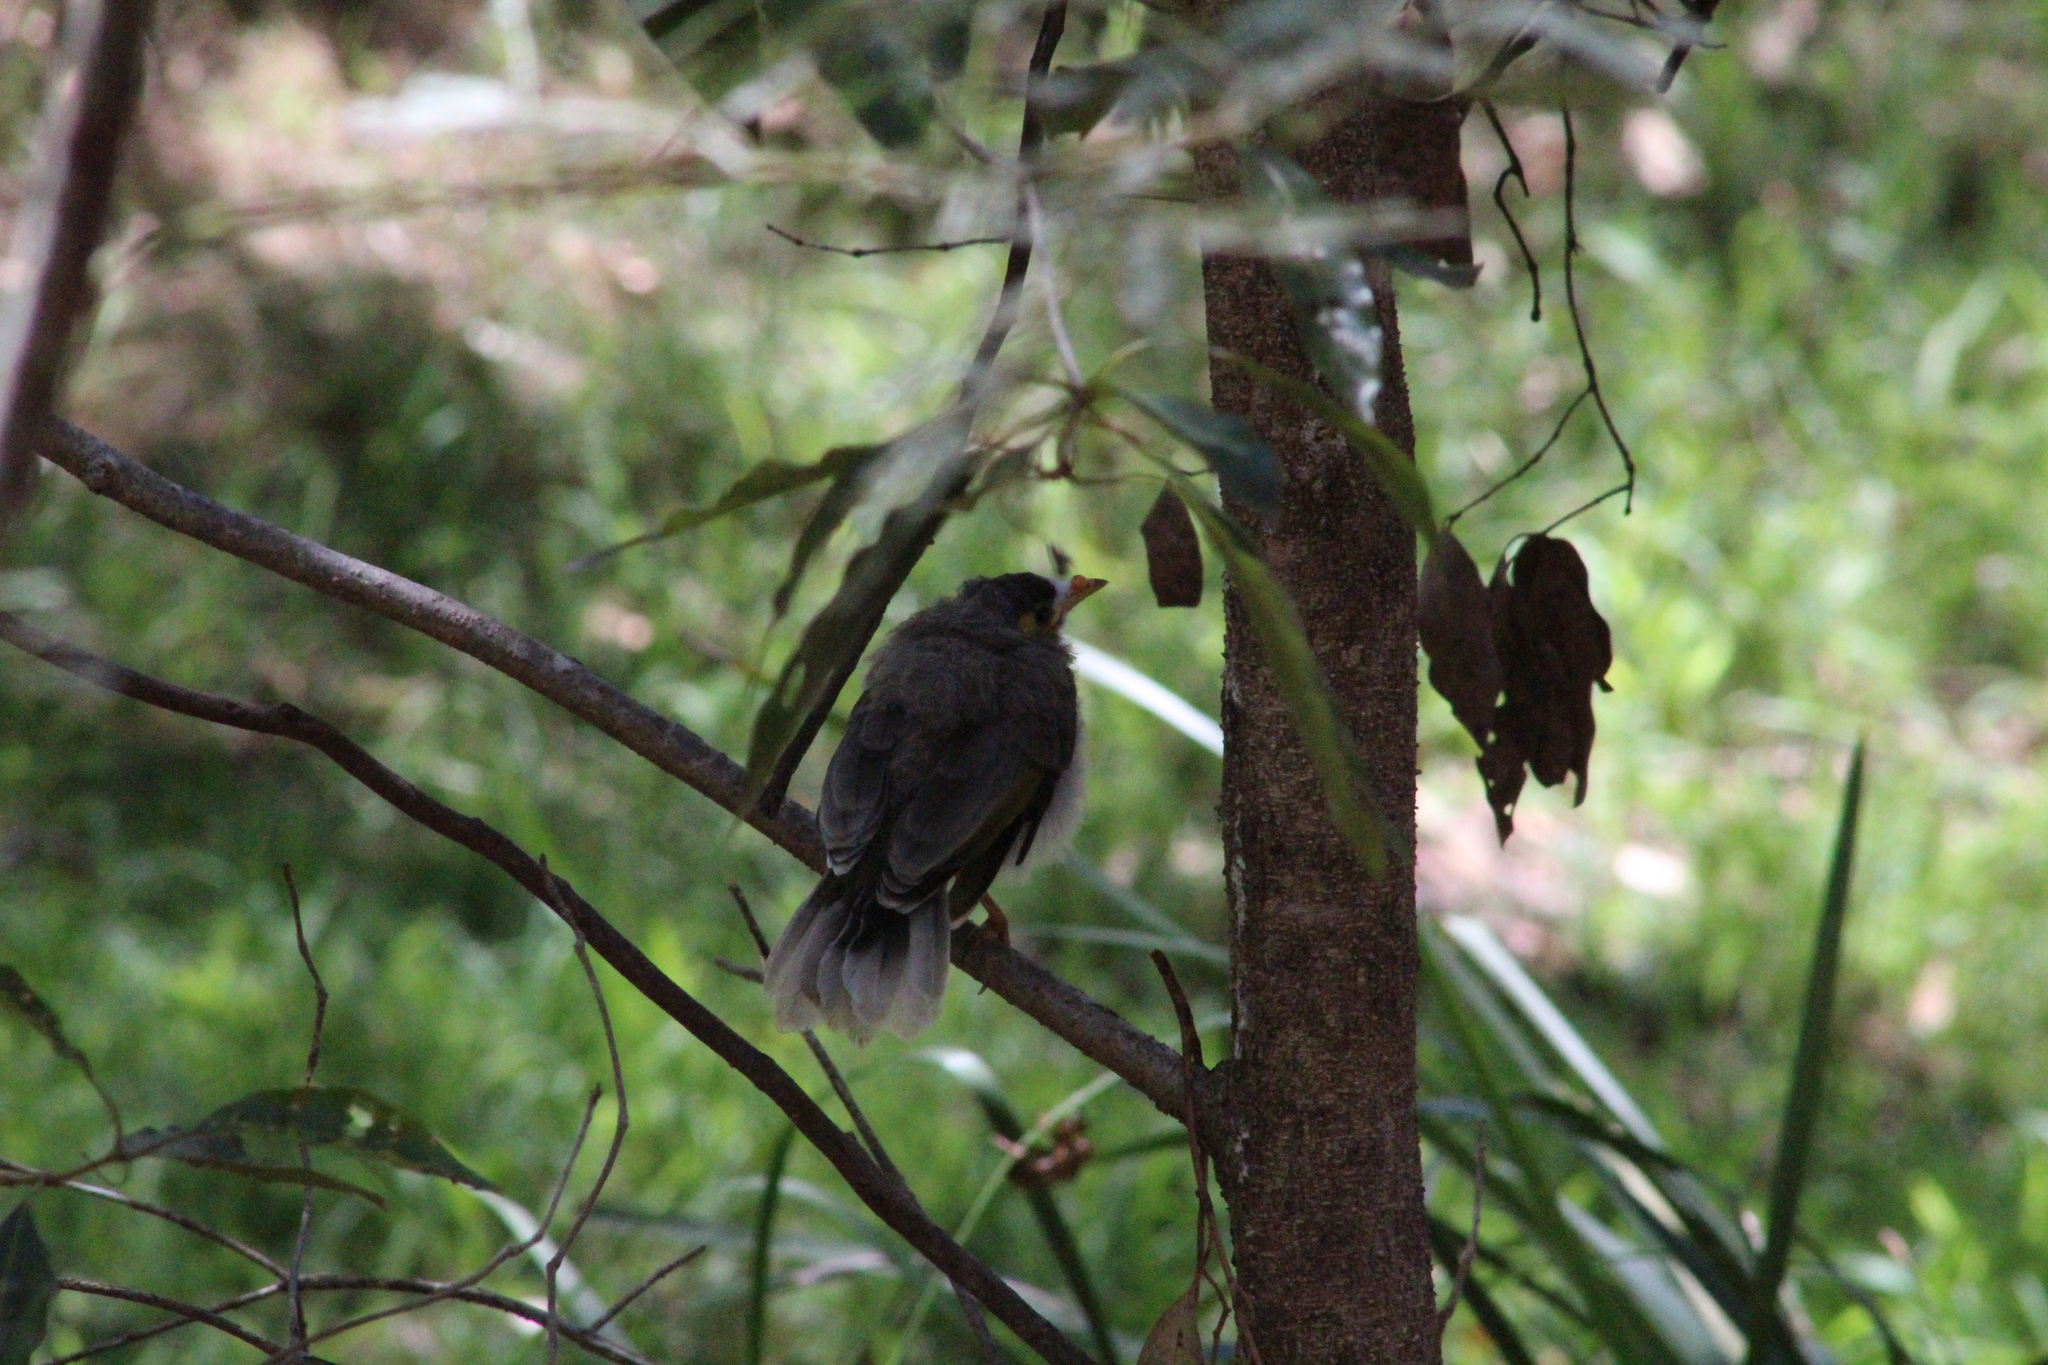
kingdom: Animalia
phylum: Chordata
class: Aves
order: Passeriformes
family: Meliphagidae
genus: Manorina
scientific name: Manorina melanocephala
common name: Noisy miner
